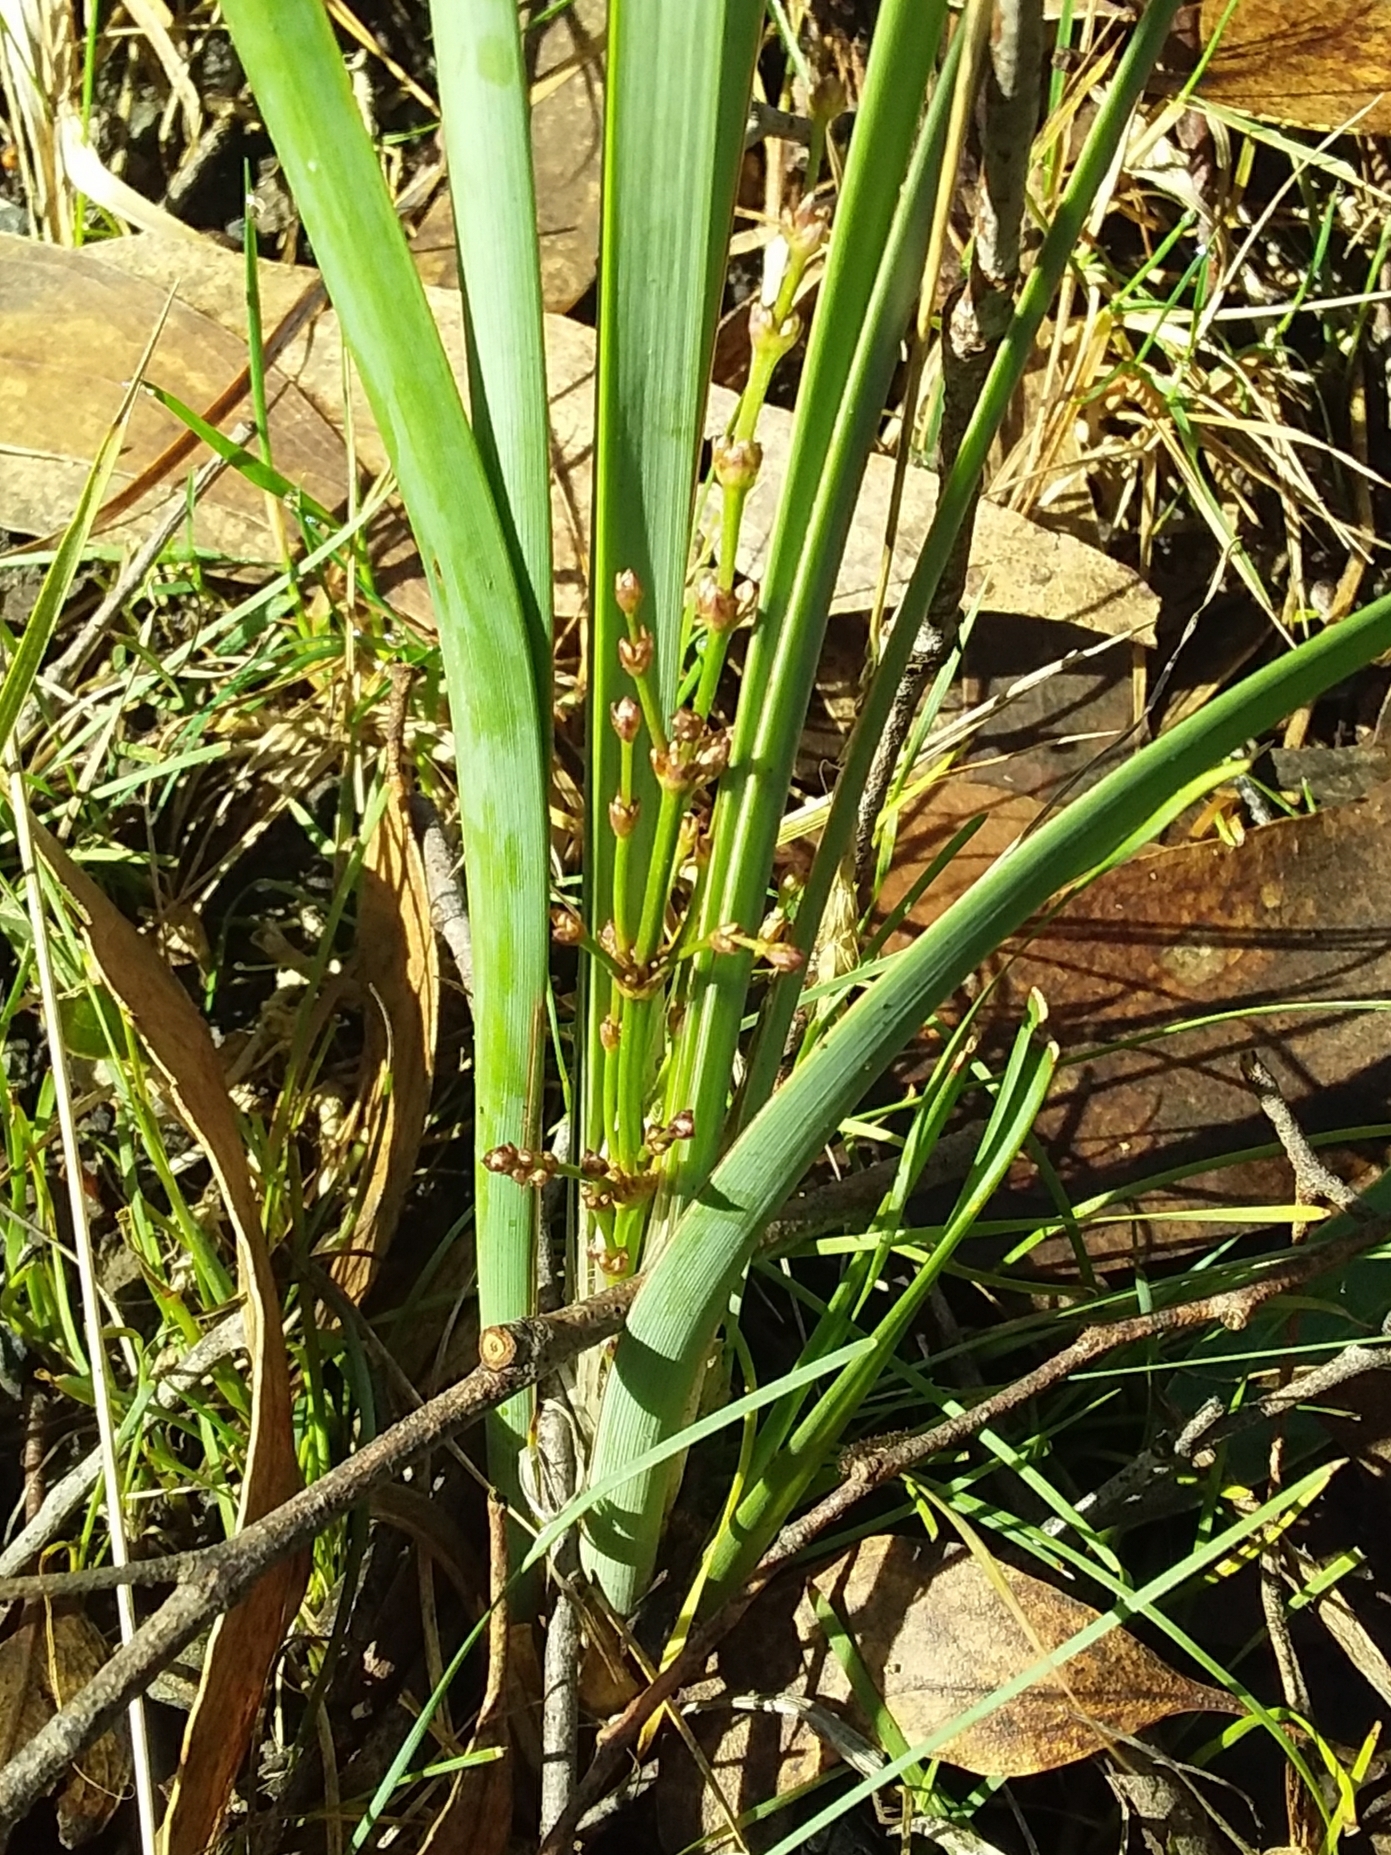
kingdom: Plantae
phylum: Tracheophyta
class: Liliopsida
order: Asparagales
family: Asparagaceae
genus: Lomandra
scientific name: Lomandra multiflora
